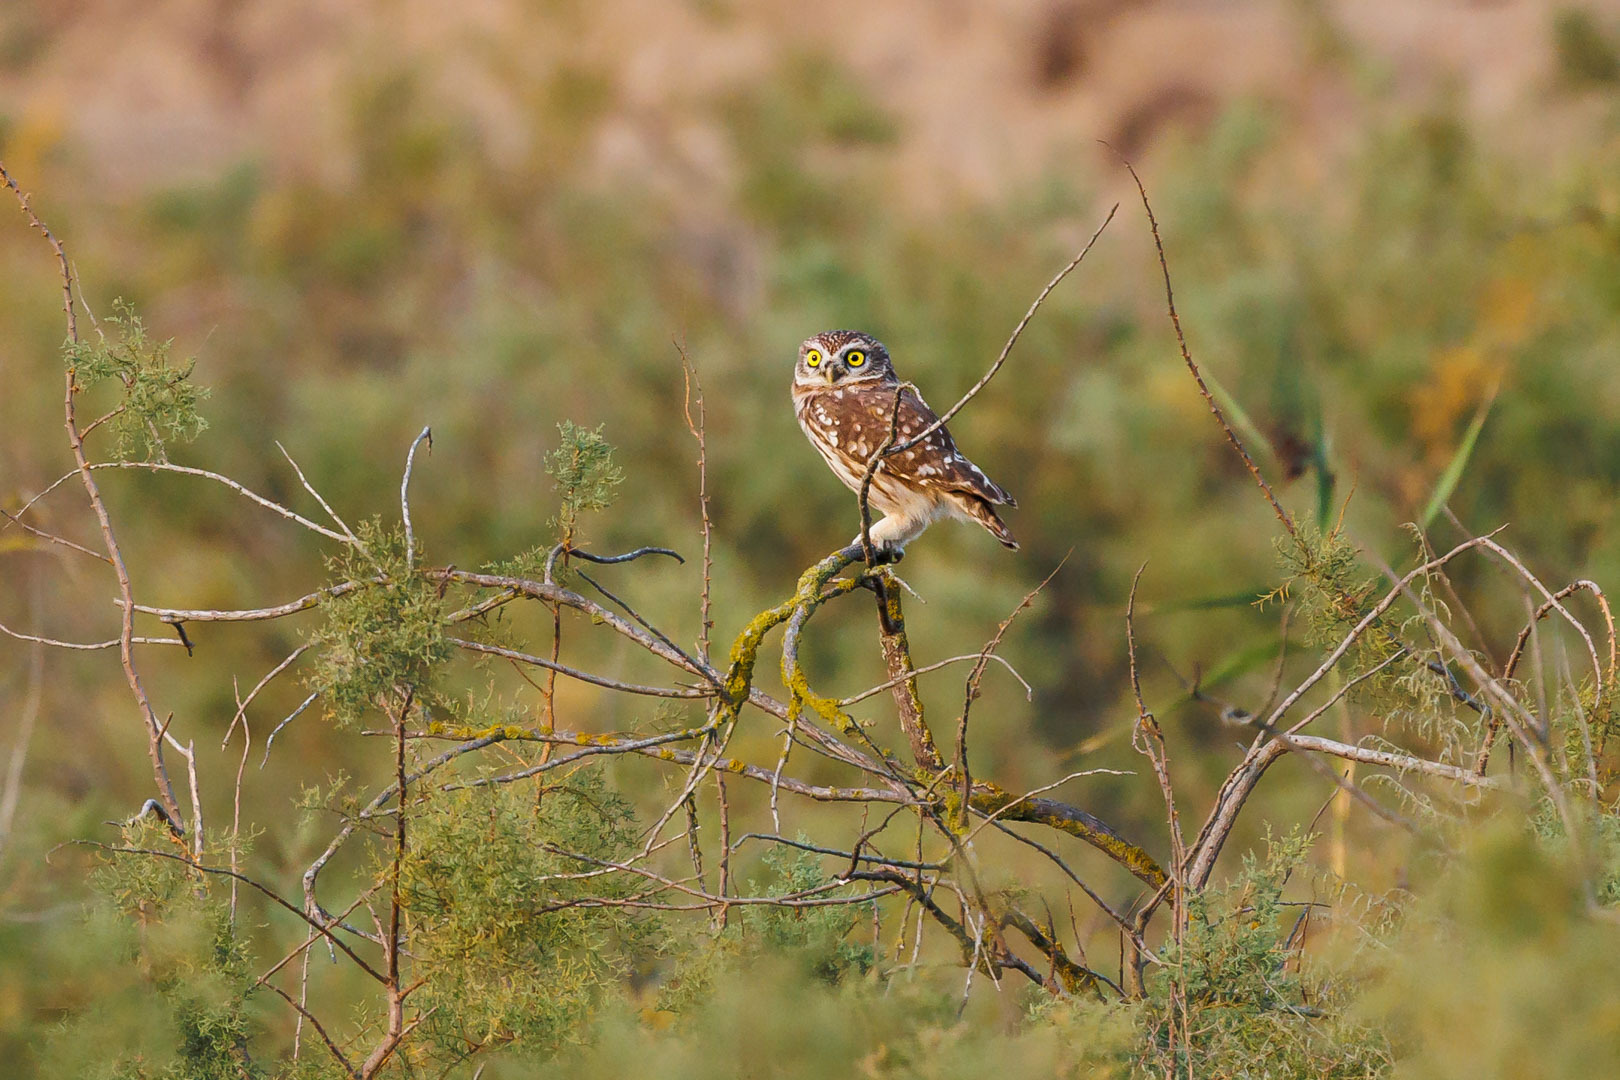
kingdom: Animalia
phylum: Chordata
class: Aves
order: Strigiformes
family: Strigidae
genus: Athene
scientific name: Athene noctua
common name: Little owl
